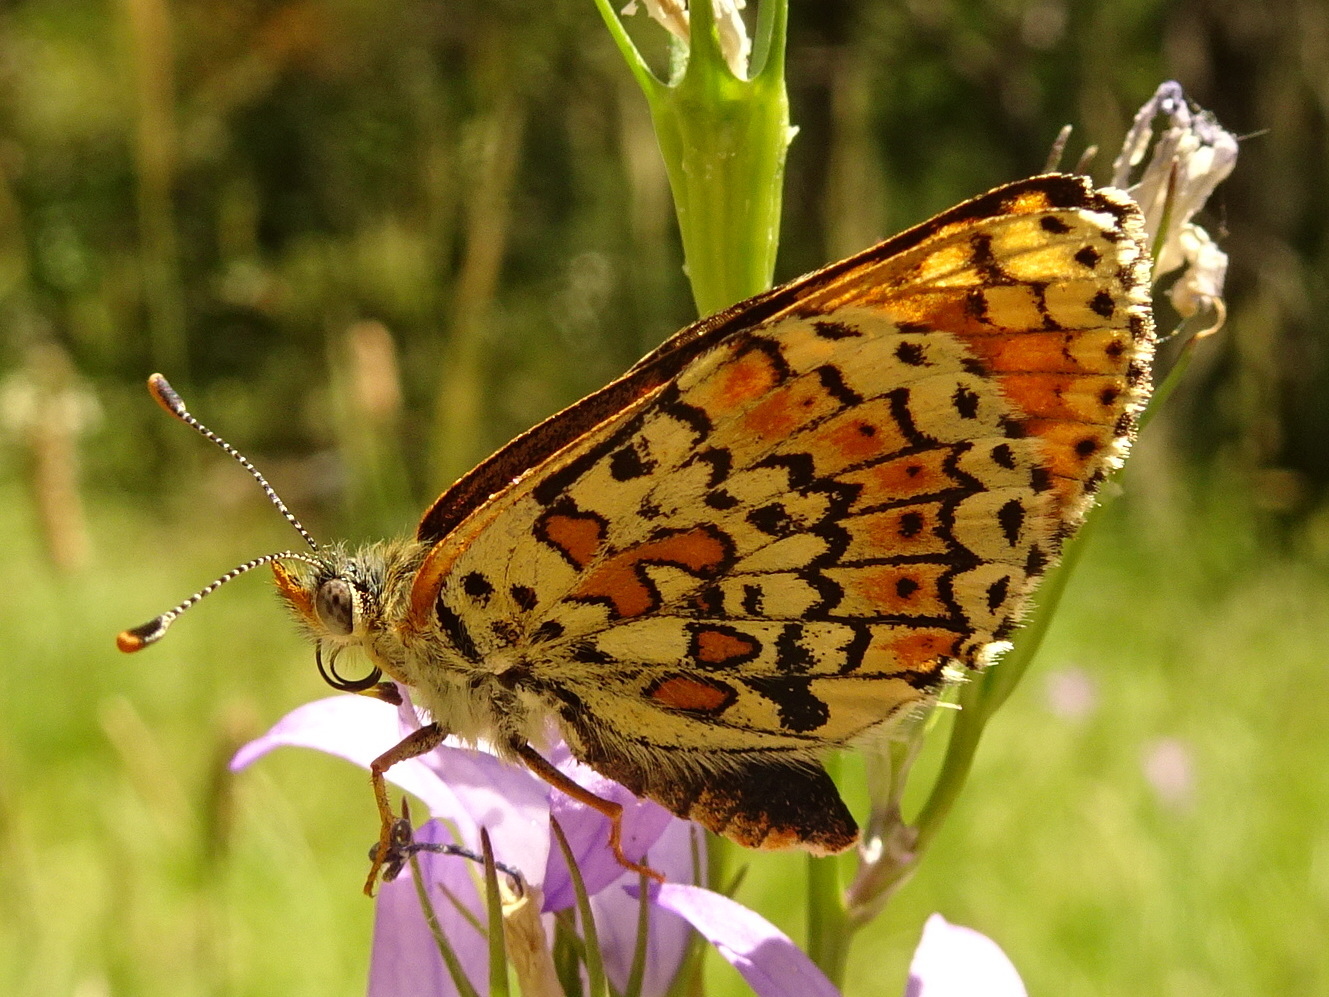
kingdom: Animalia
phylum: Arthropoda
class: Insecta
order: Lepidoptera
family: Nymphalidae
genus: Melitaea
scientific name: Melitaea cinxia
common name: Glanville fritillary
